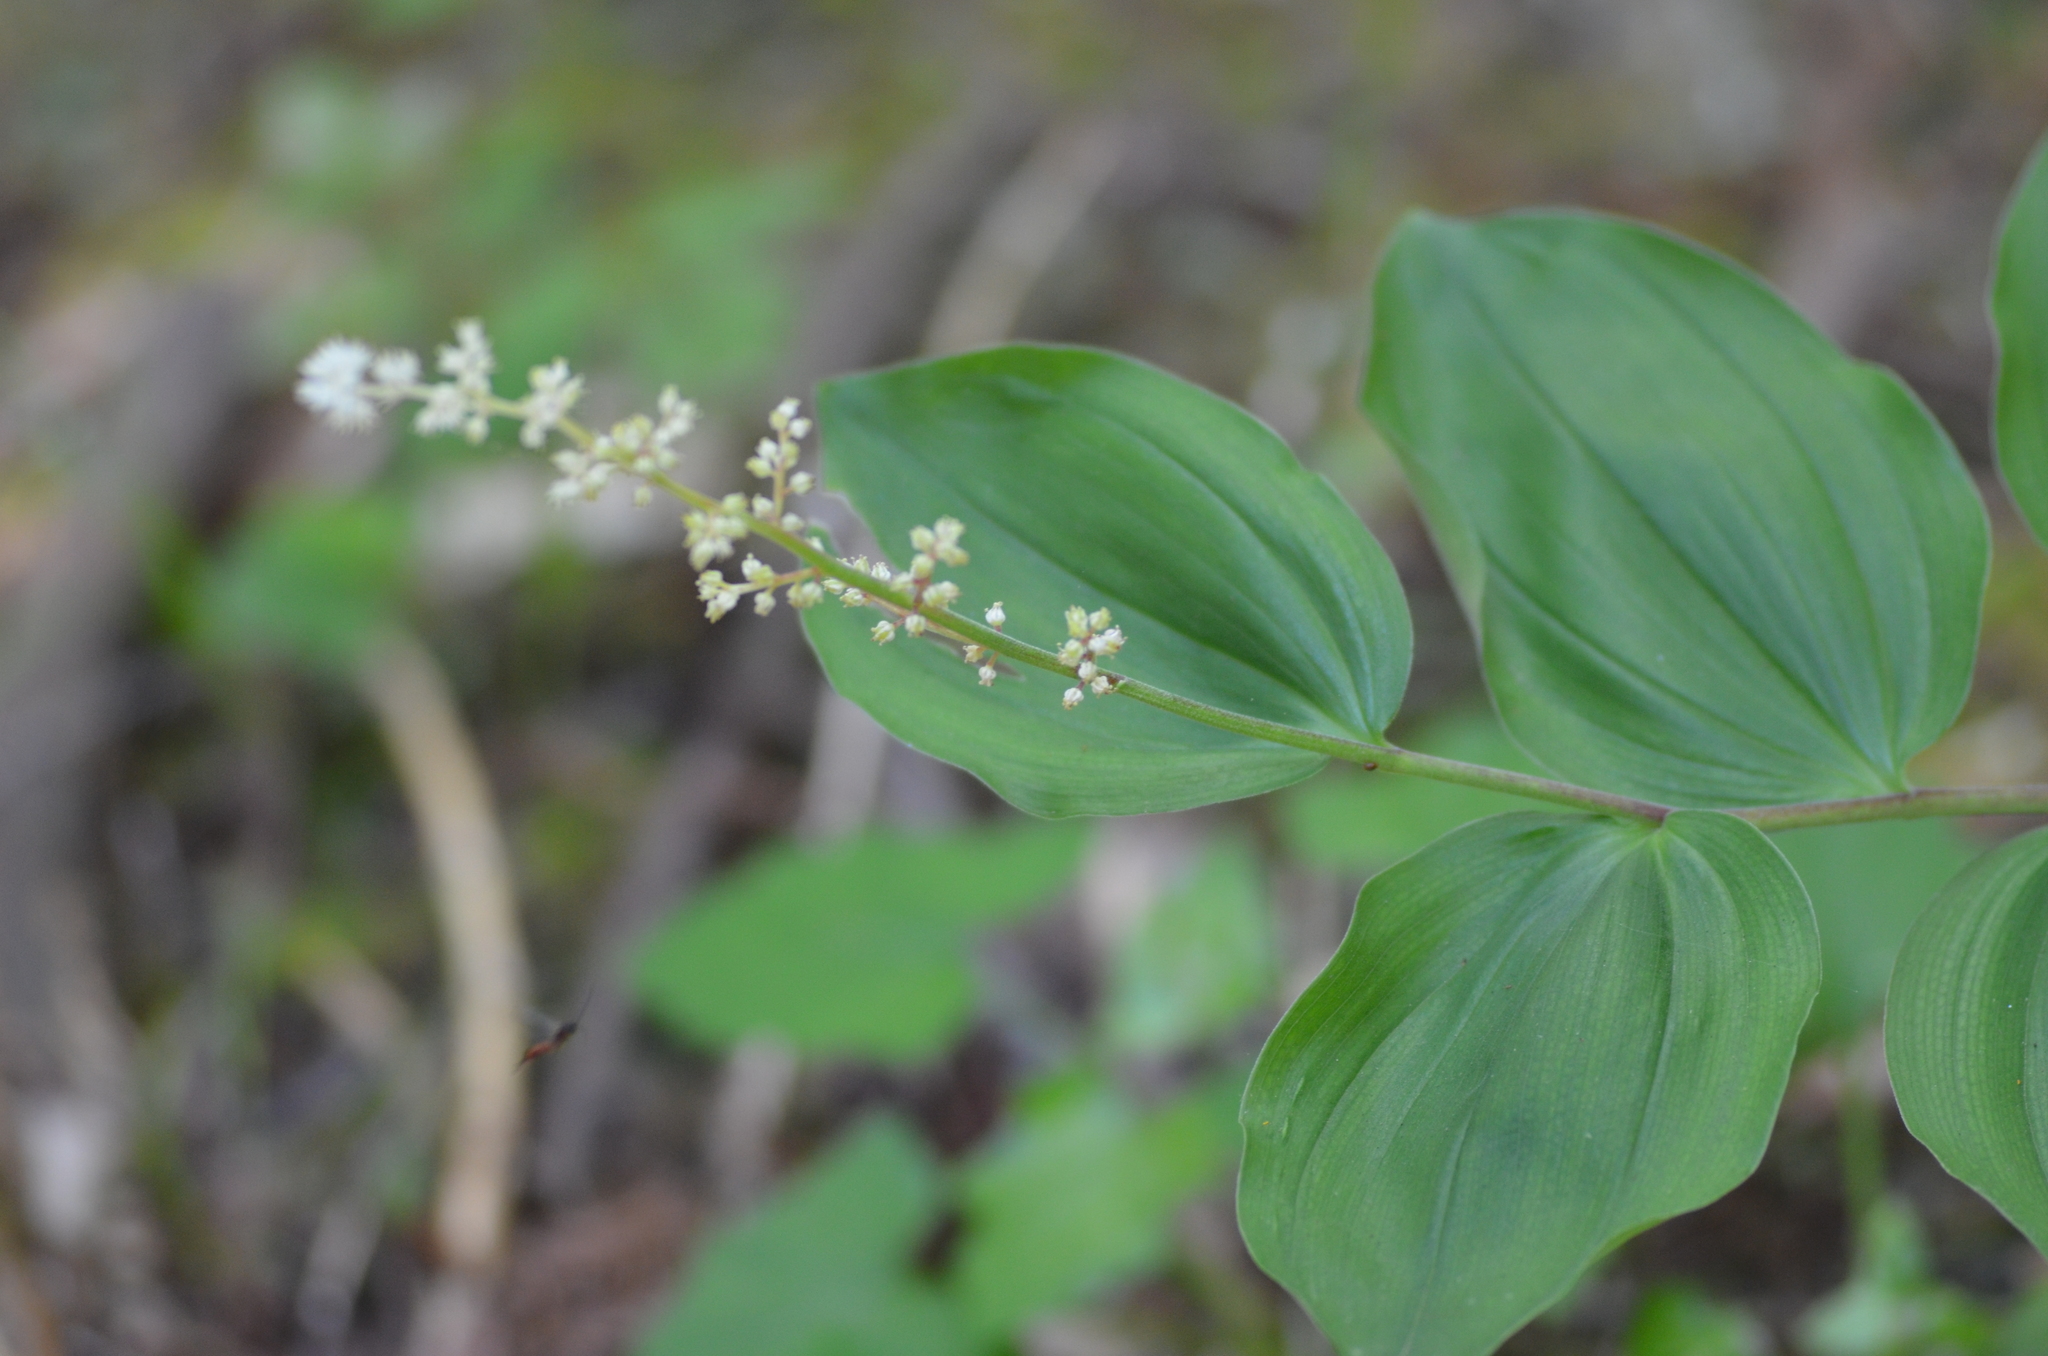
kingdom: Plantae
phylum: Tracheophyta
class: Liliopsida
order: Asparagales
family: Asparagaceae
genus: Maianthemum
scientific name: Maianthemum racemosum
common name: False spikenard
